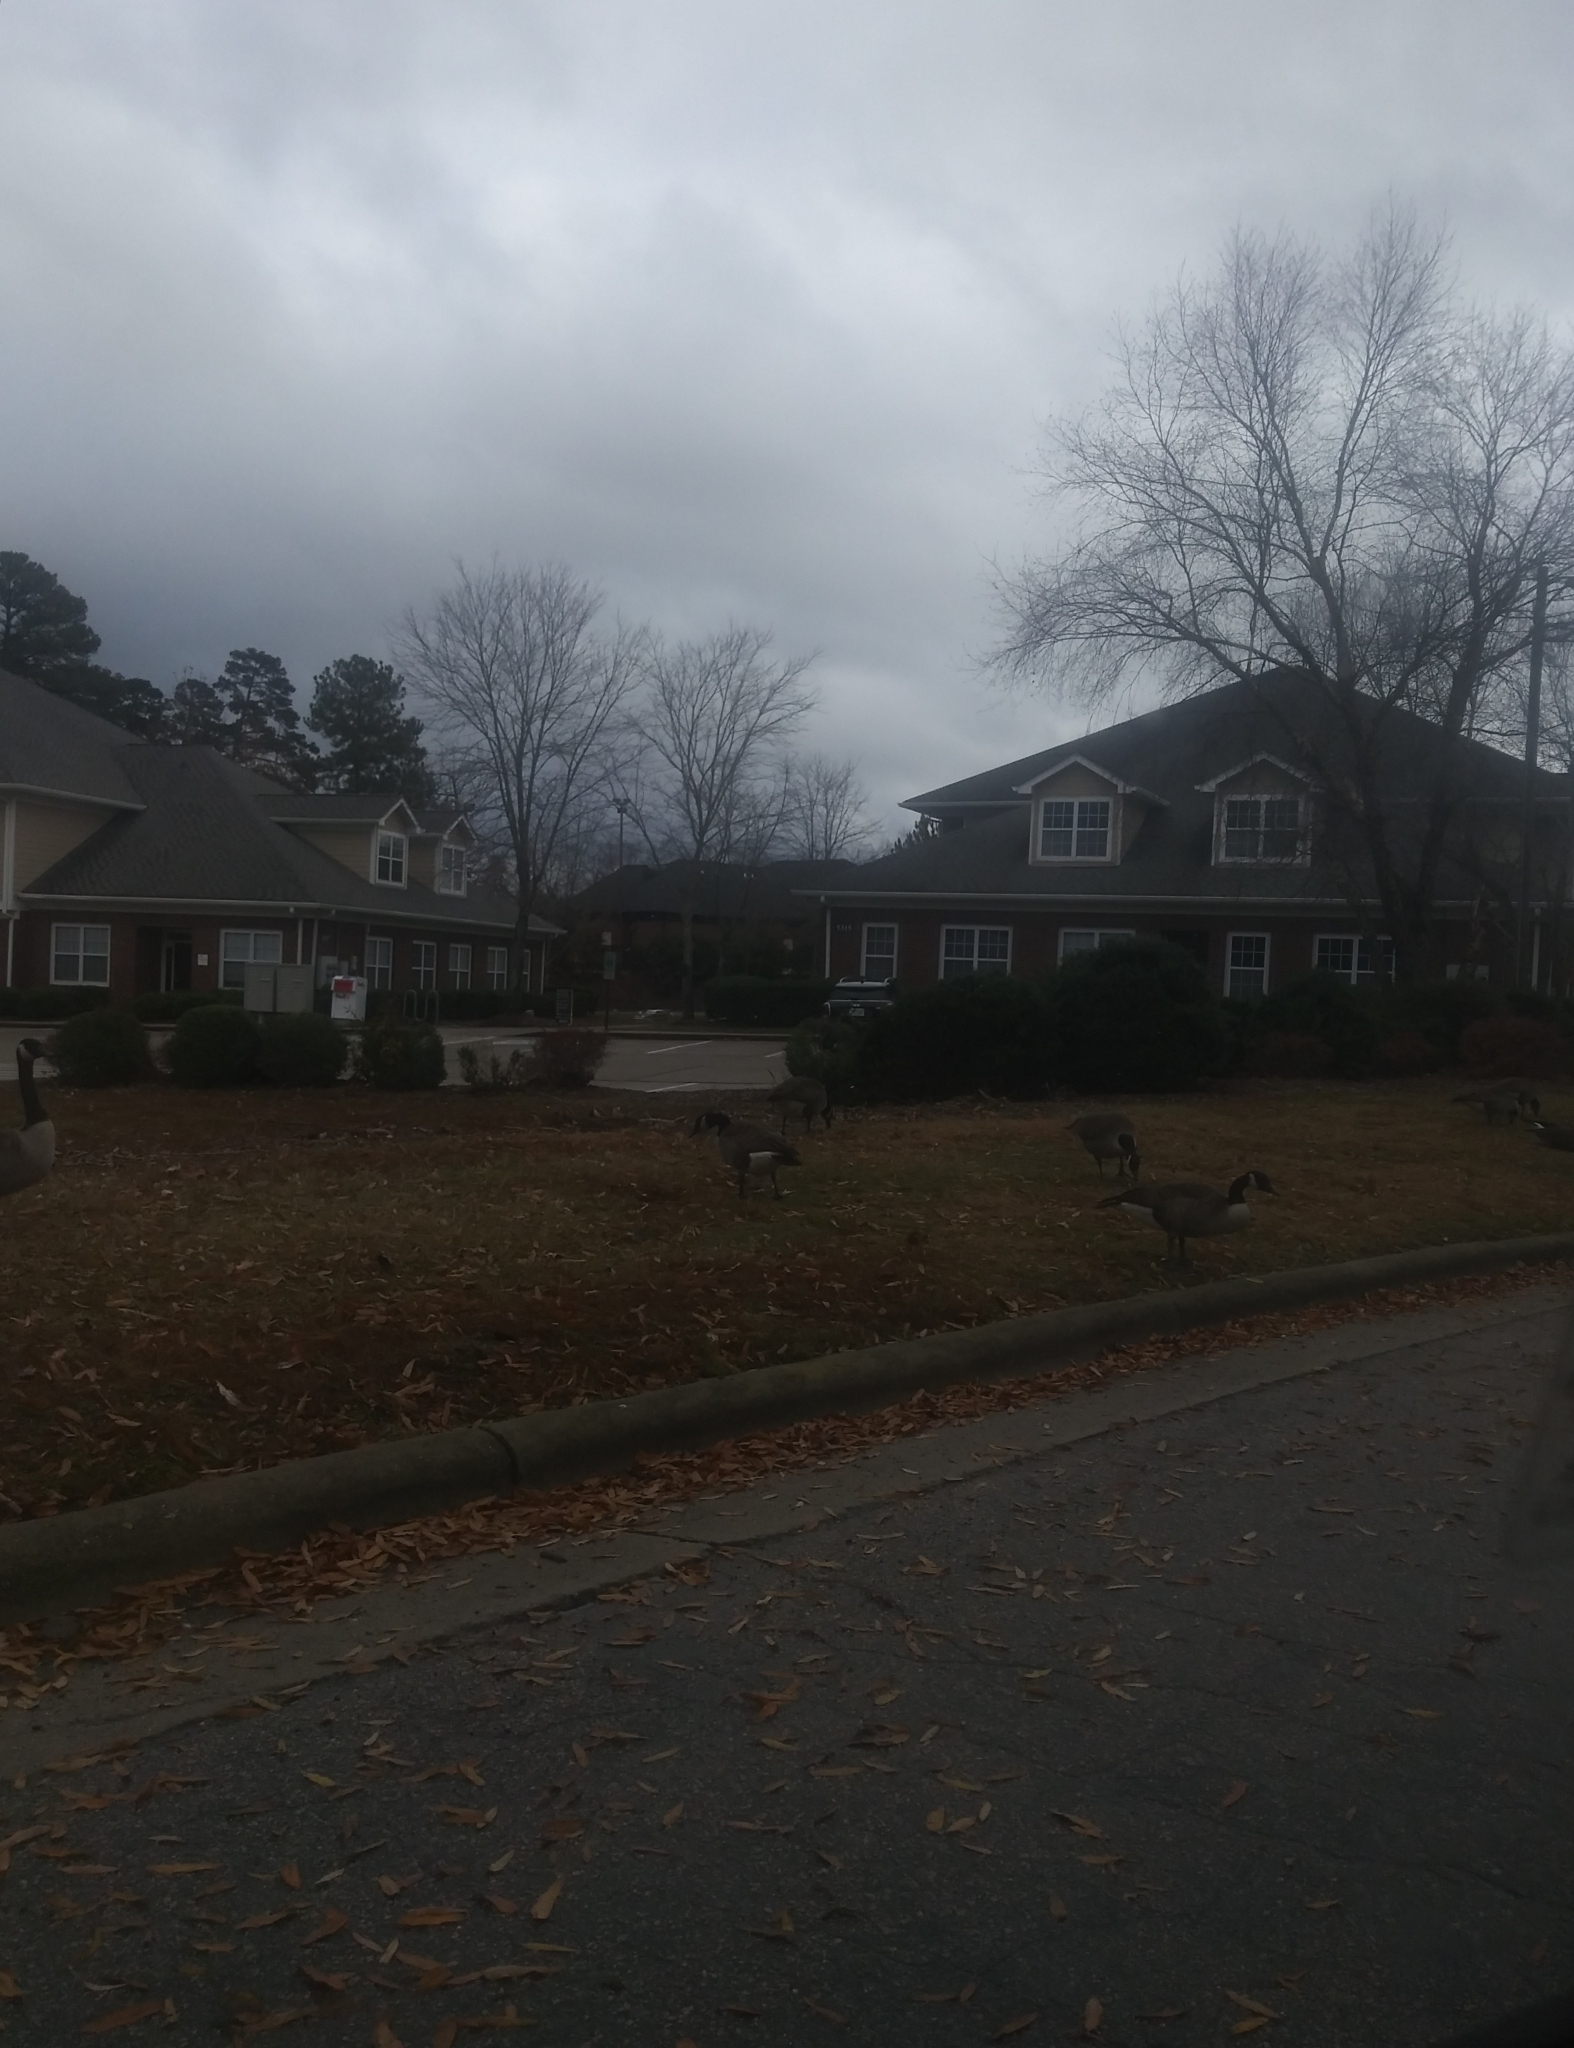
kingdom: Animalia
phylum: Chordata
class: Aves
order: Anseriformes
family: Anatidae
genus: Branta
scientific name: Branta canadensis
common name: Canada goose
